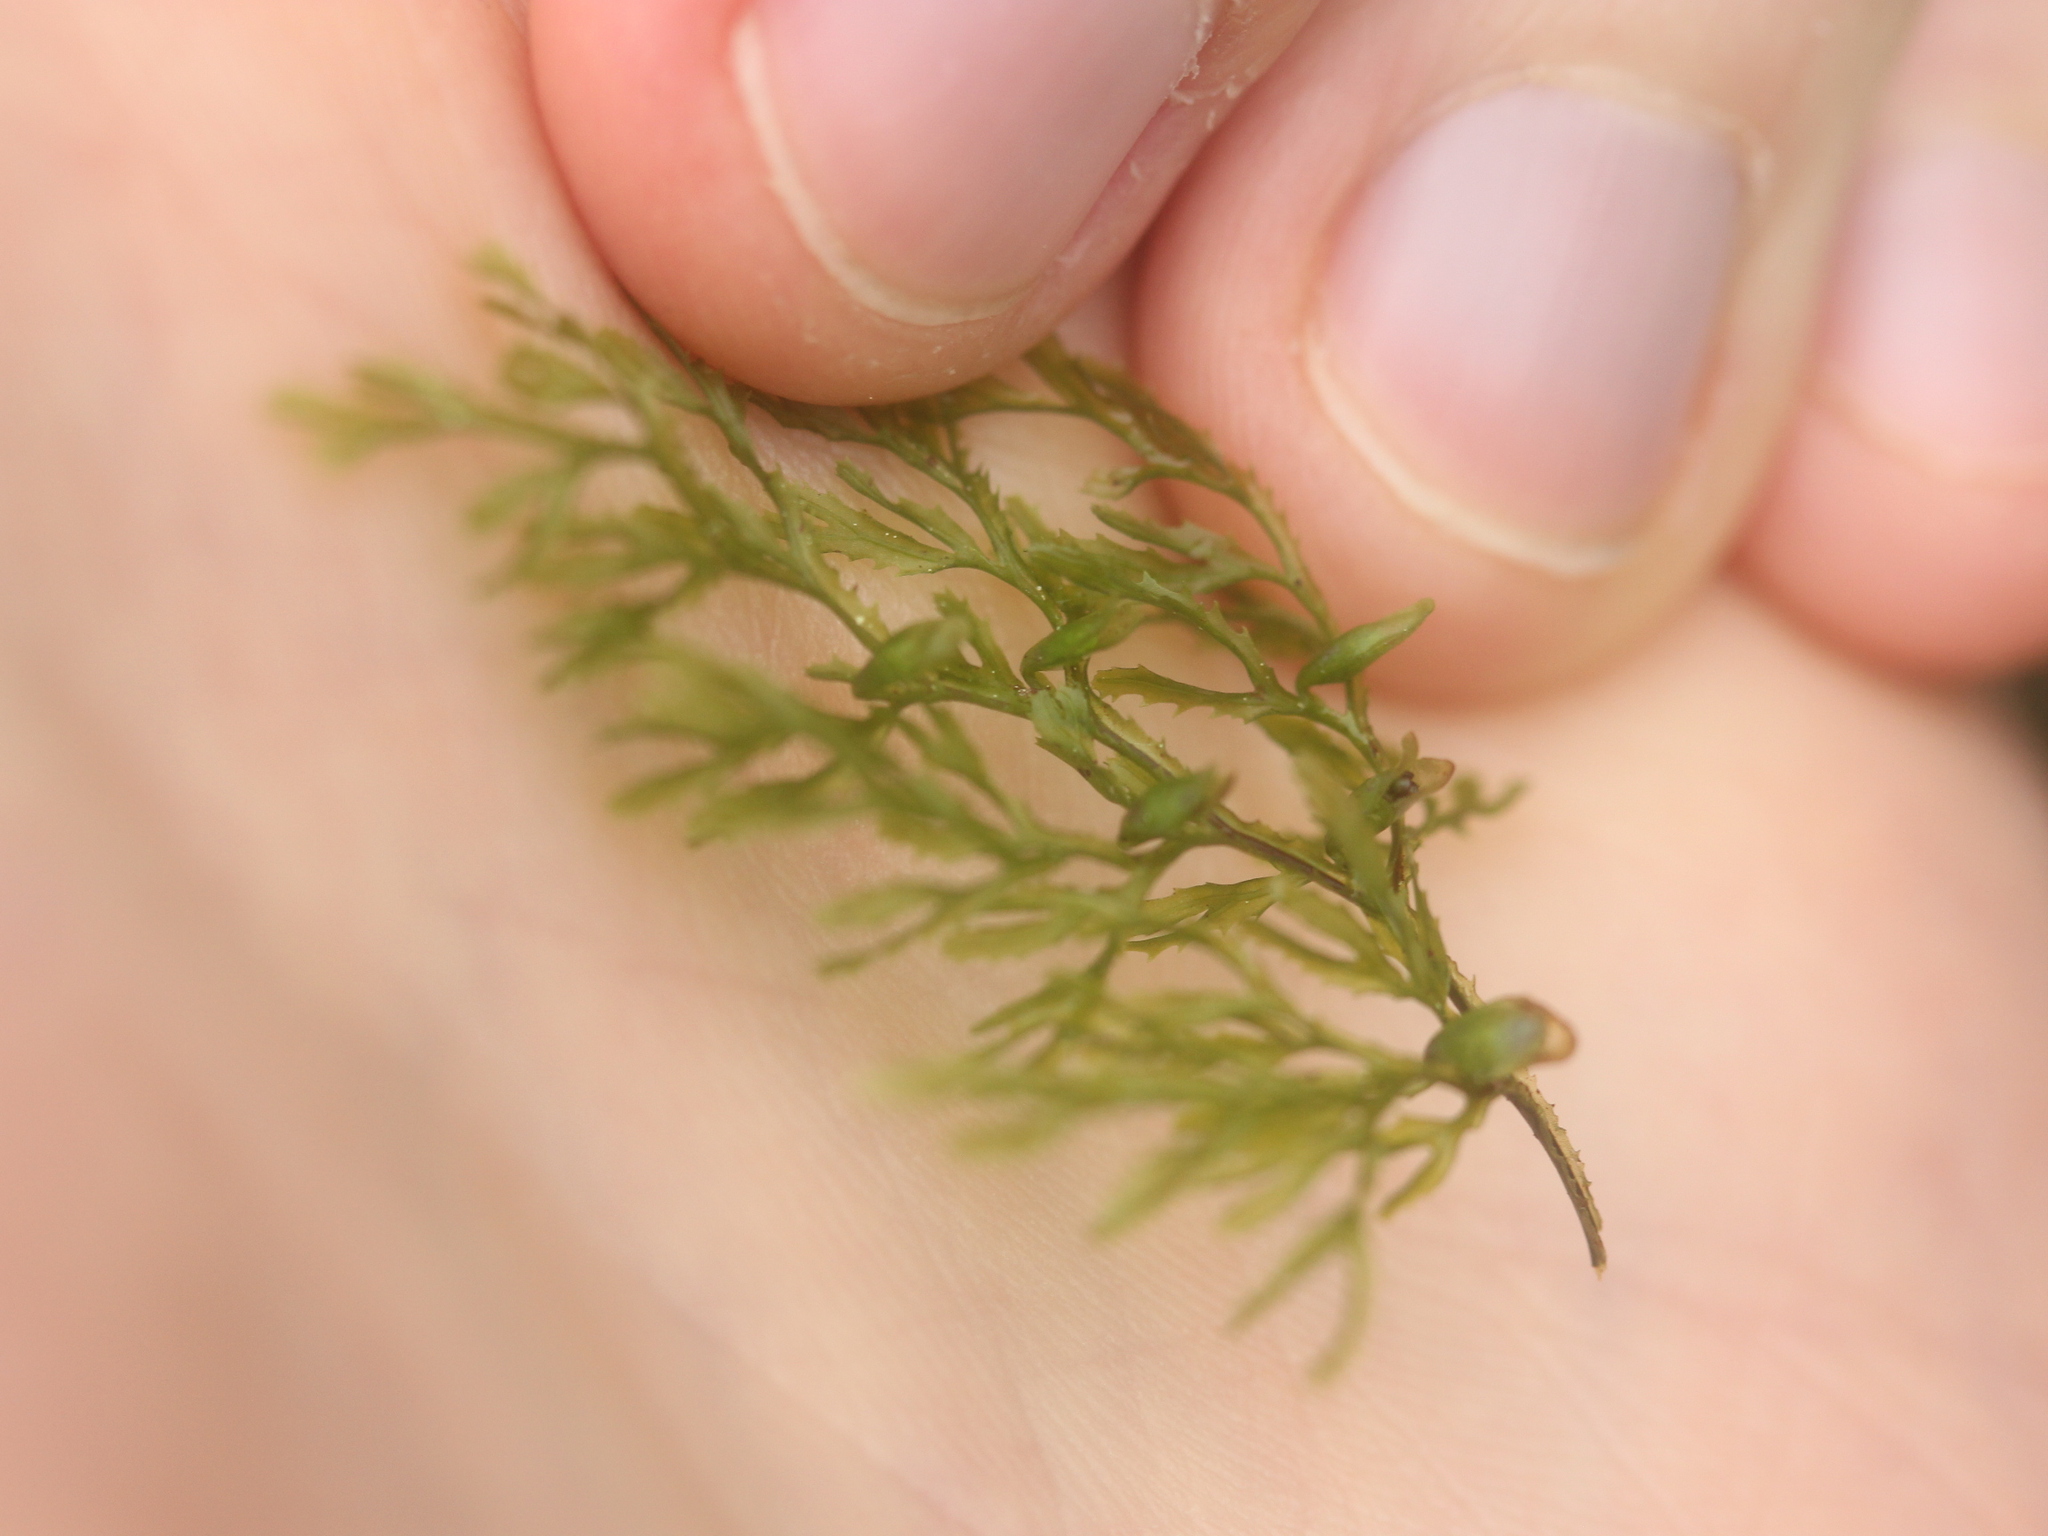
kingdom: Plantae
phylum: Tracheophyta
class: Polypodiopsida
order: Hymenophyllales
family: Hymenophyllaceae
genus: Hymenophyllum
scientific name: Hymenophyllum multifidum
